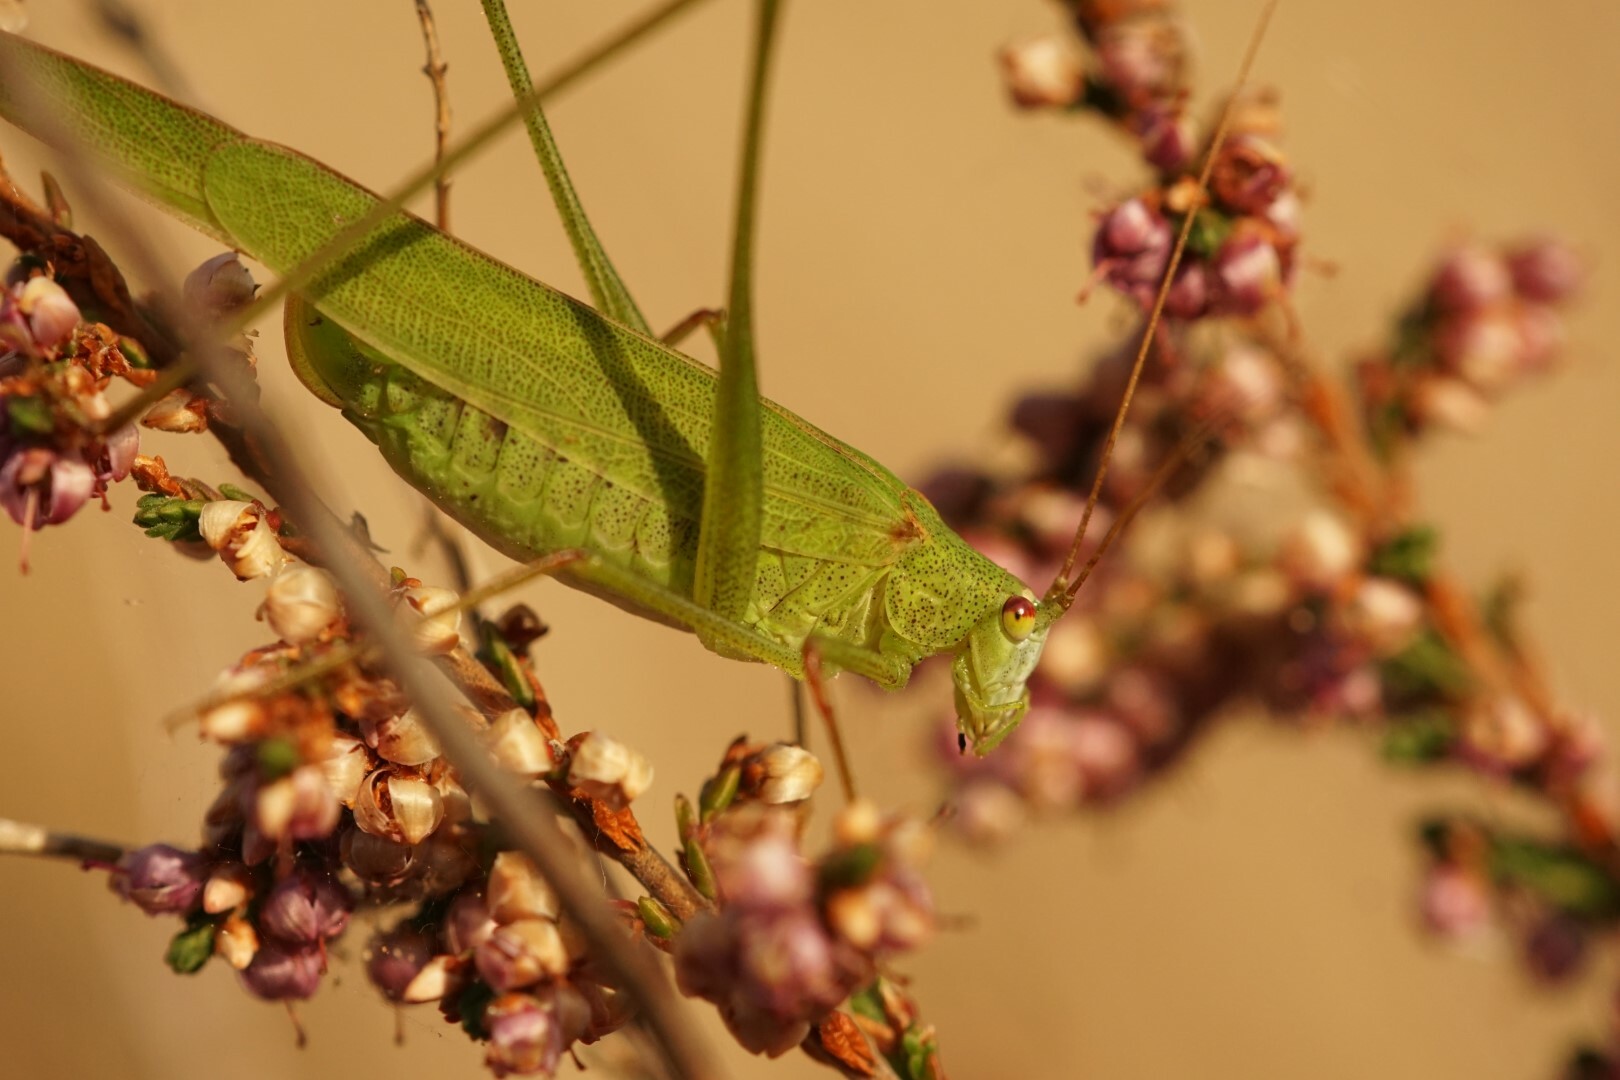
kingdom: Animalia
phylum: Arthropoda
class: Insecta
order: Orthoptera
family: Tettigoniidae
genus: Phaneroptera
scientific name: Phaneroptera falcata
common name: Sickle-bearing bush-cricket
